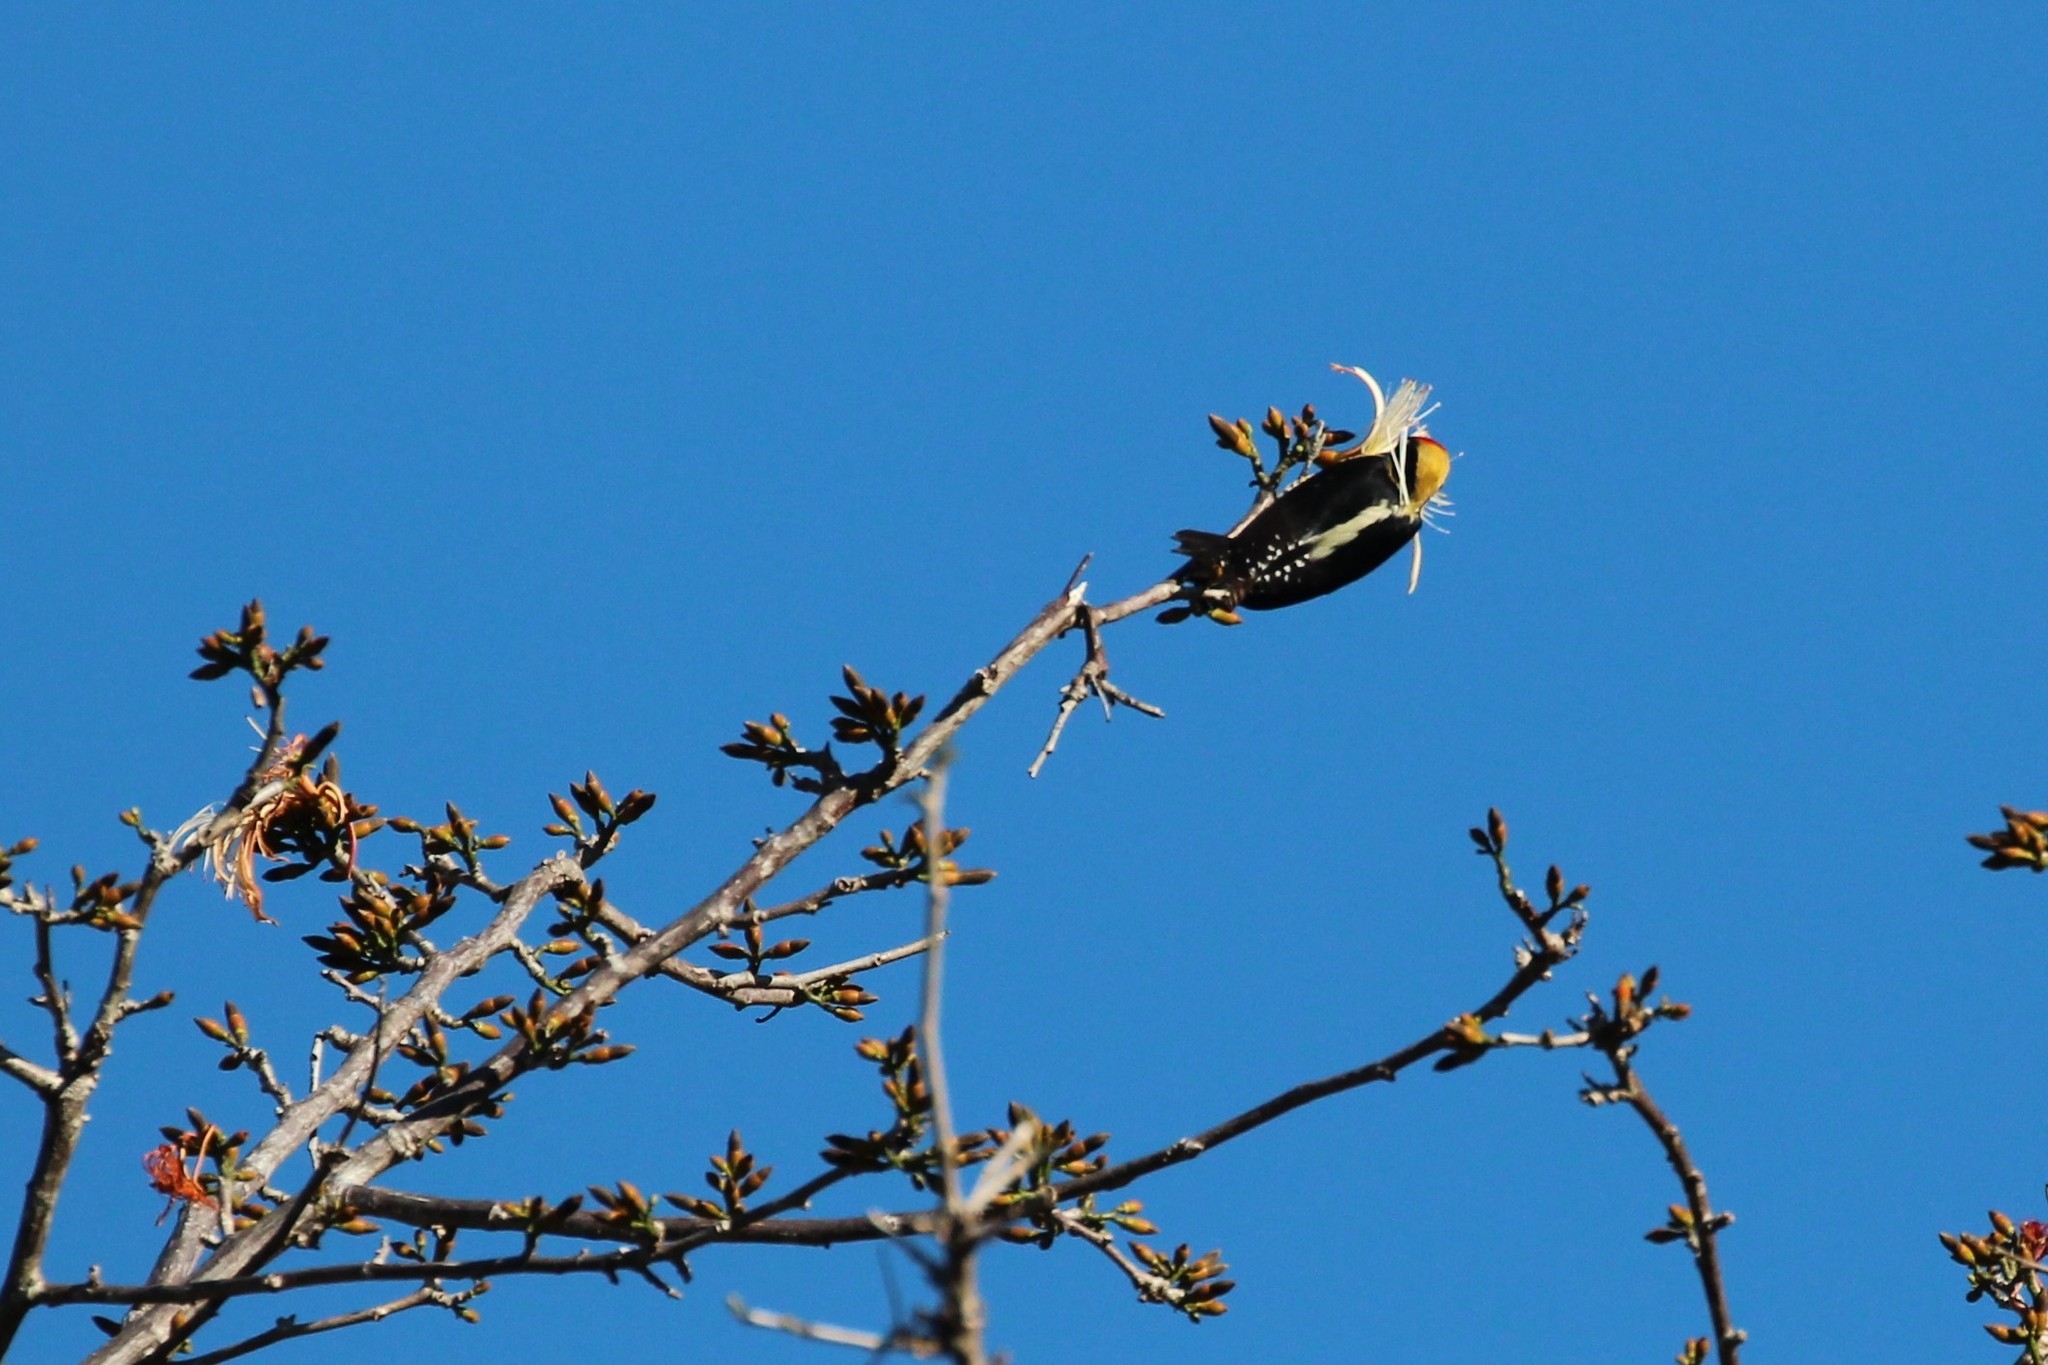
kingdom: Animalia
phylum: Chordata
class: Aves
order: Piciformes
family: Picidae
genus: Melanerpes
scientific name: Melanerpes chrysauchen
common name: Golden-naped woodpecker
